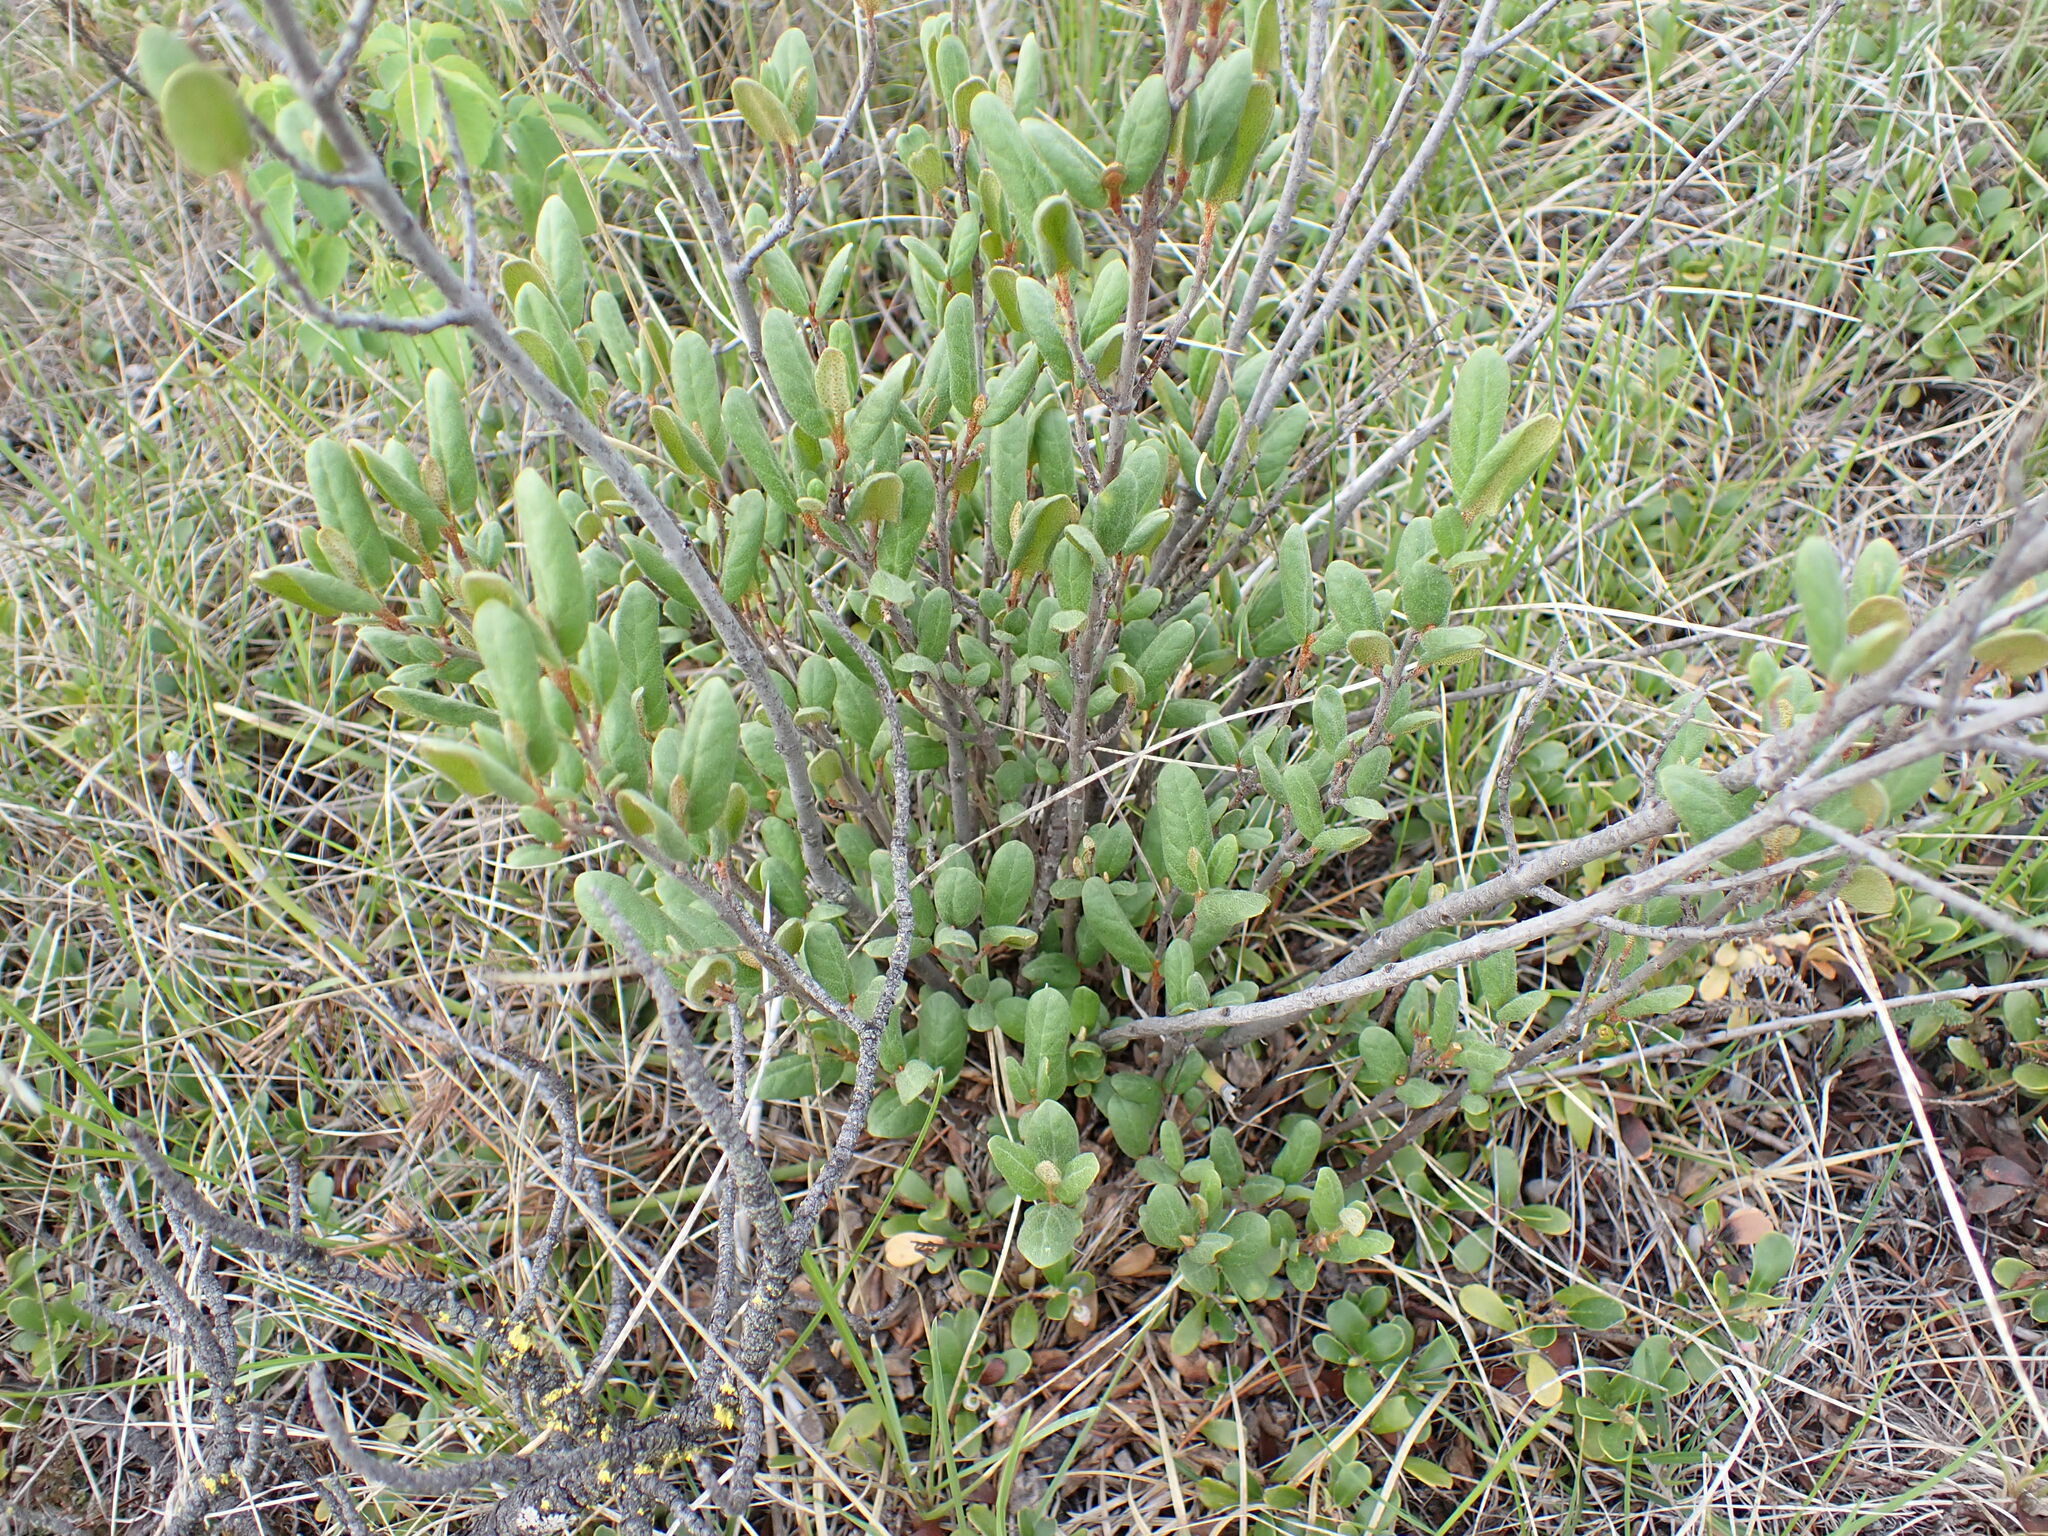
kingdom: Plantae
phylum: Tracheophyta
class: Magnoliopsida
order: Rosales
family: Elaeagnaceae
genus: Shepherdia
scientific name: Shepherdia canadensis
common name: Soapberry
